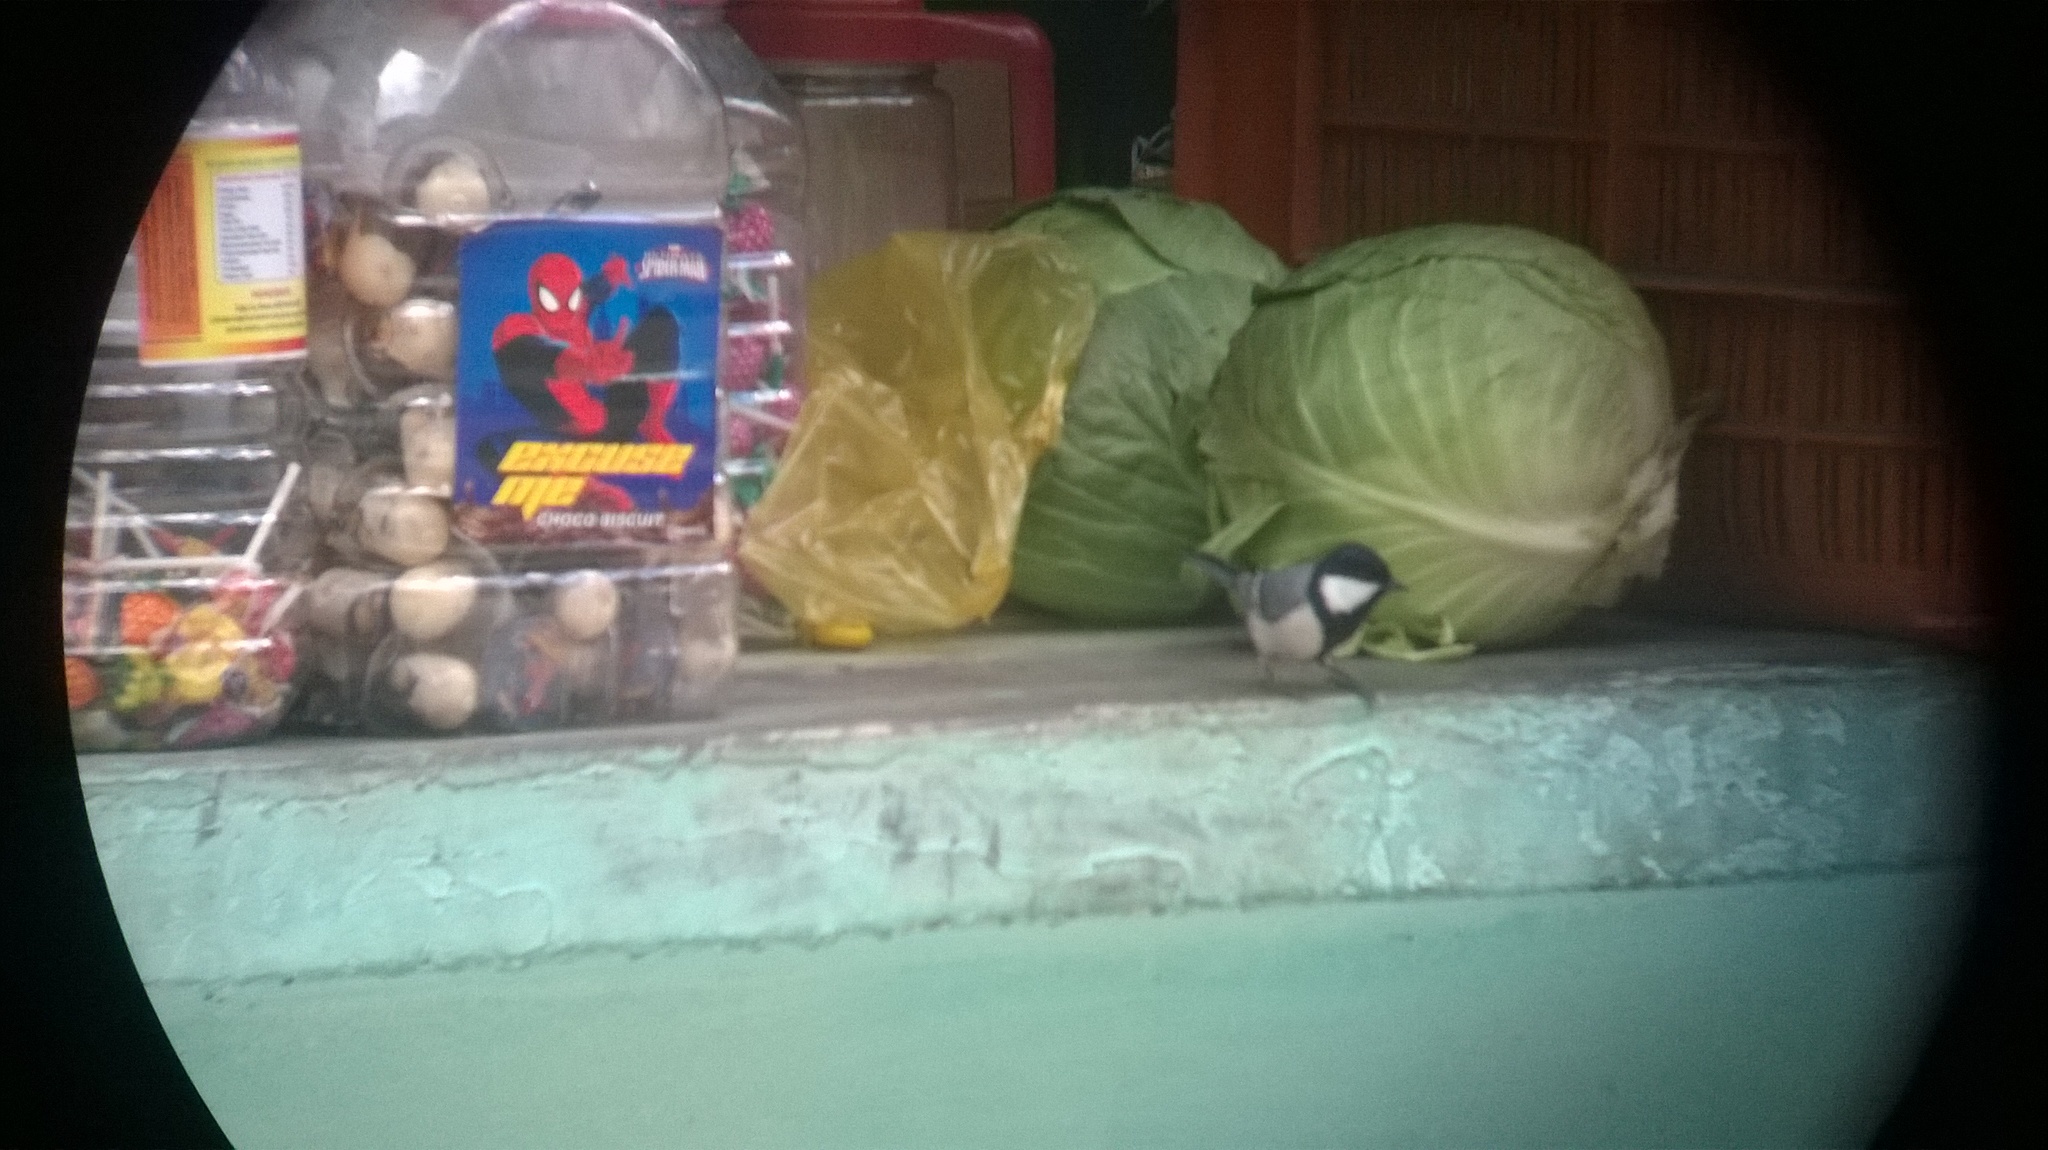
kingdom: Animalia
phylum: Chordata
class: Aves
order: Passeriformes
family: Paridae
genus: Parus
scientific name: Parus cinereus
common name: Cinereous tit
